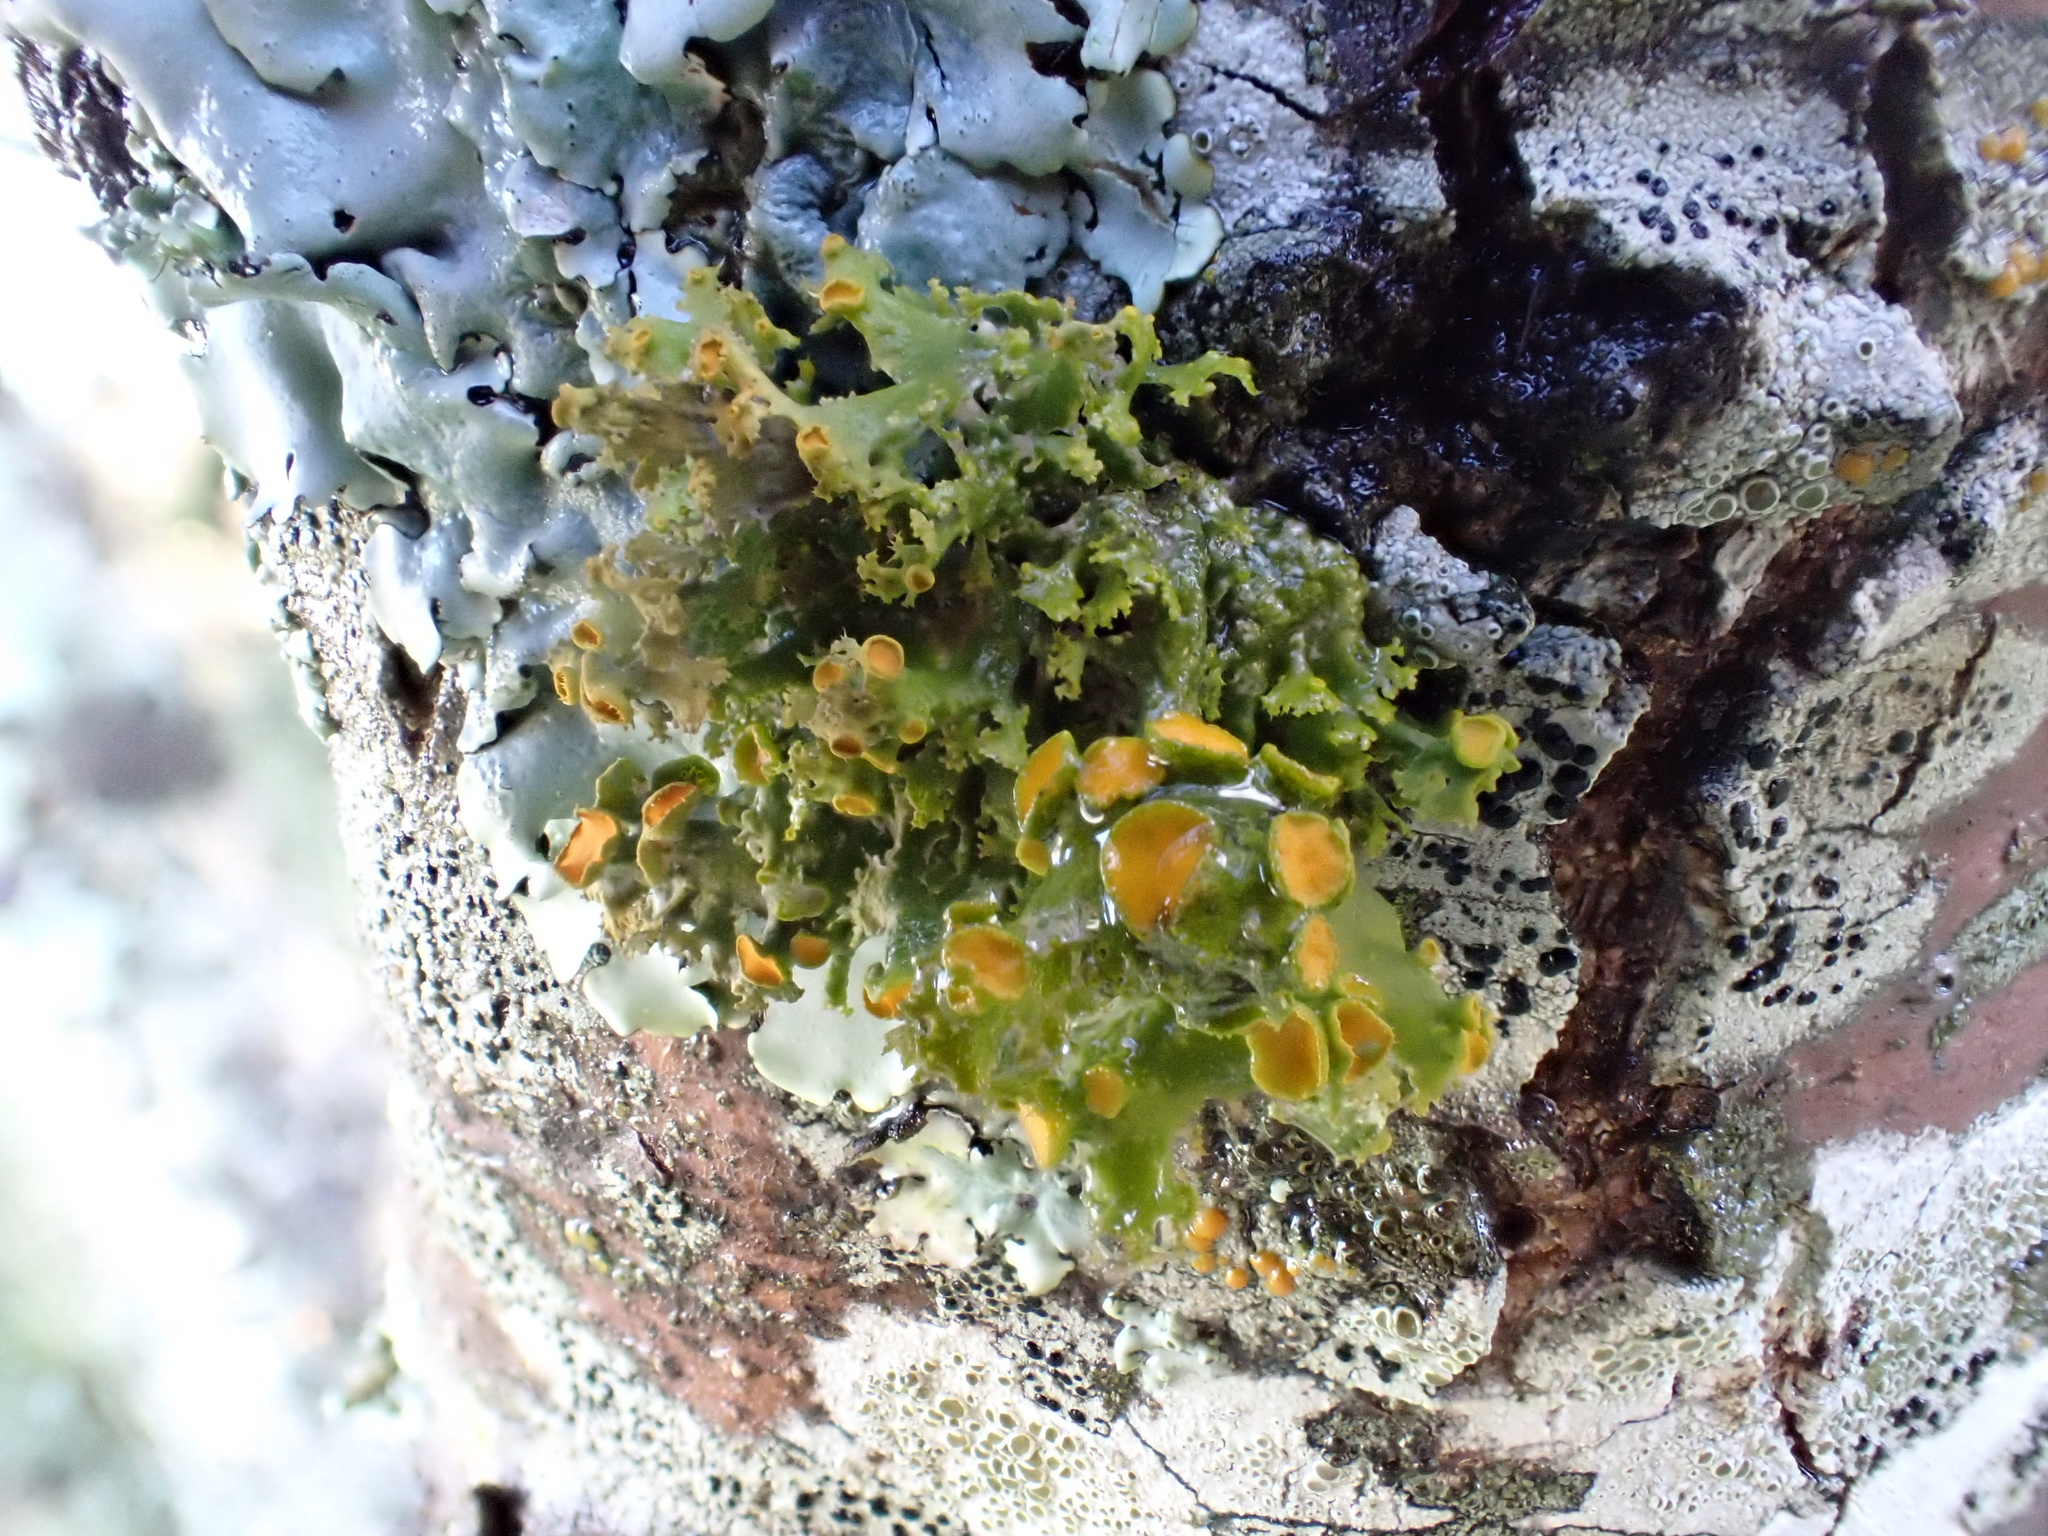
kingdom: Fungi
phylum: Ascomycota
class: Lecanoromycetes
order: Teloschistales
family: Teloschistaceae
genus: Niorma
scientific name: Niorma chrysophthalma
